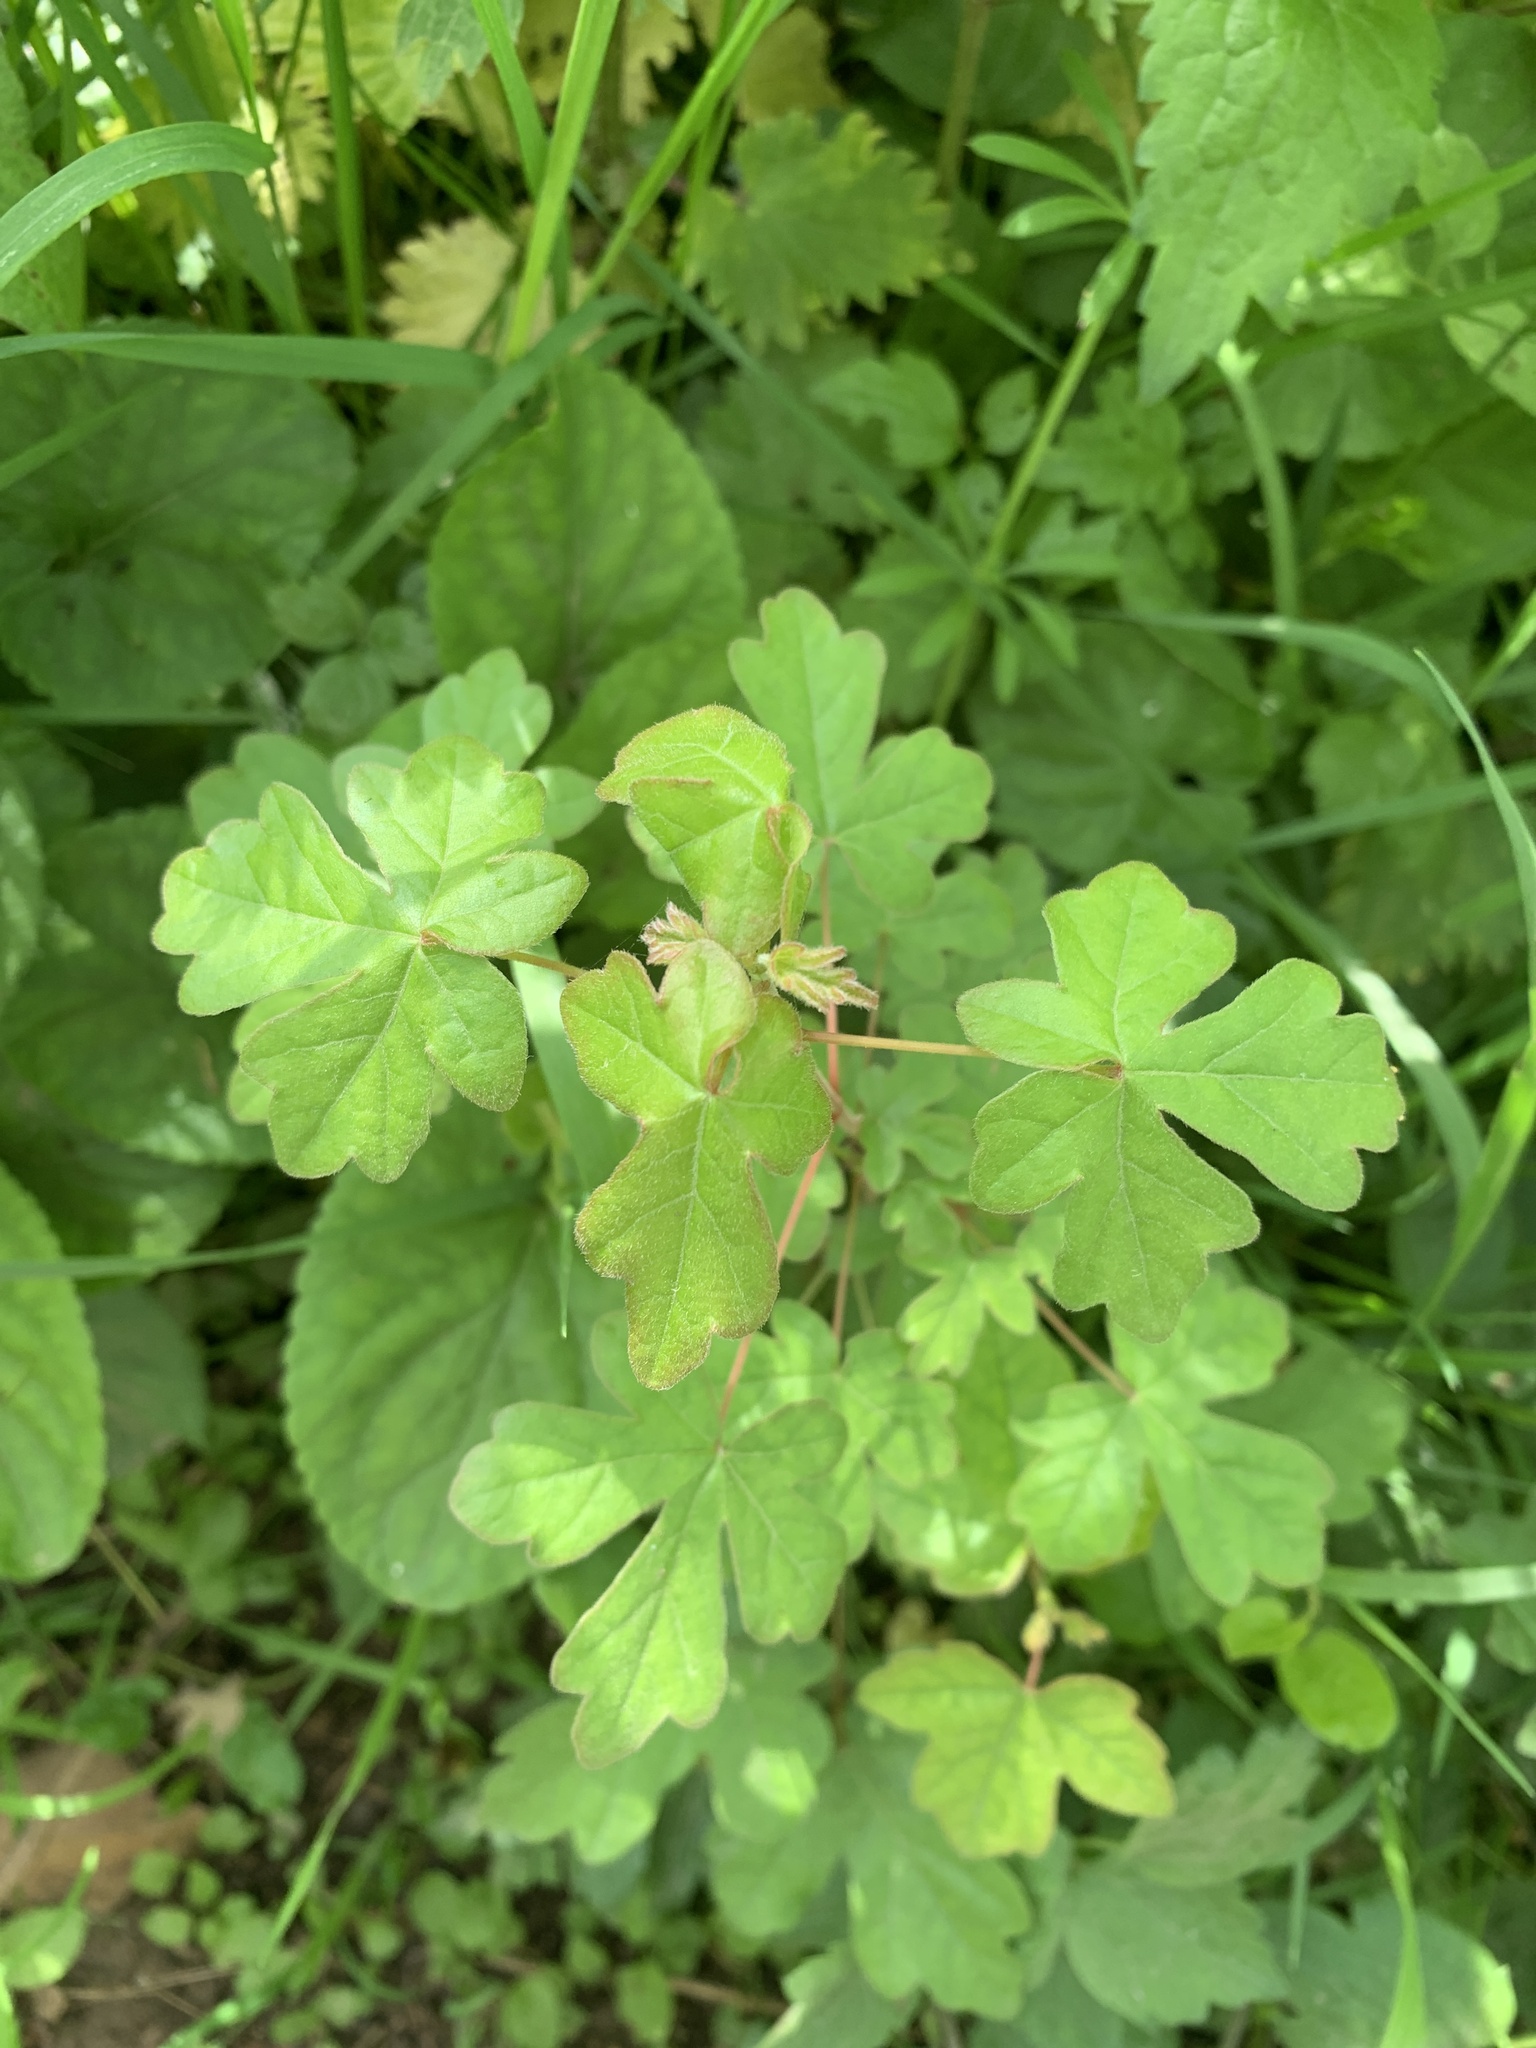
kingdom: Plantae
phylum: Tracheophyta
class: Magnoliopsida
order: Sapindales
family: Sapindaceae
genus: Acer
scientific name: Acer campestre
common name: Field maple
